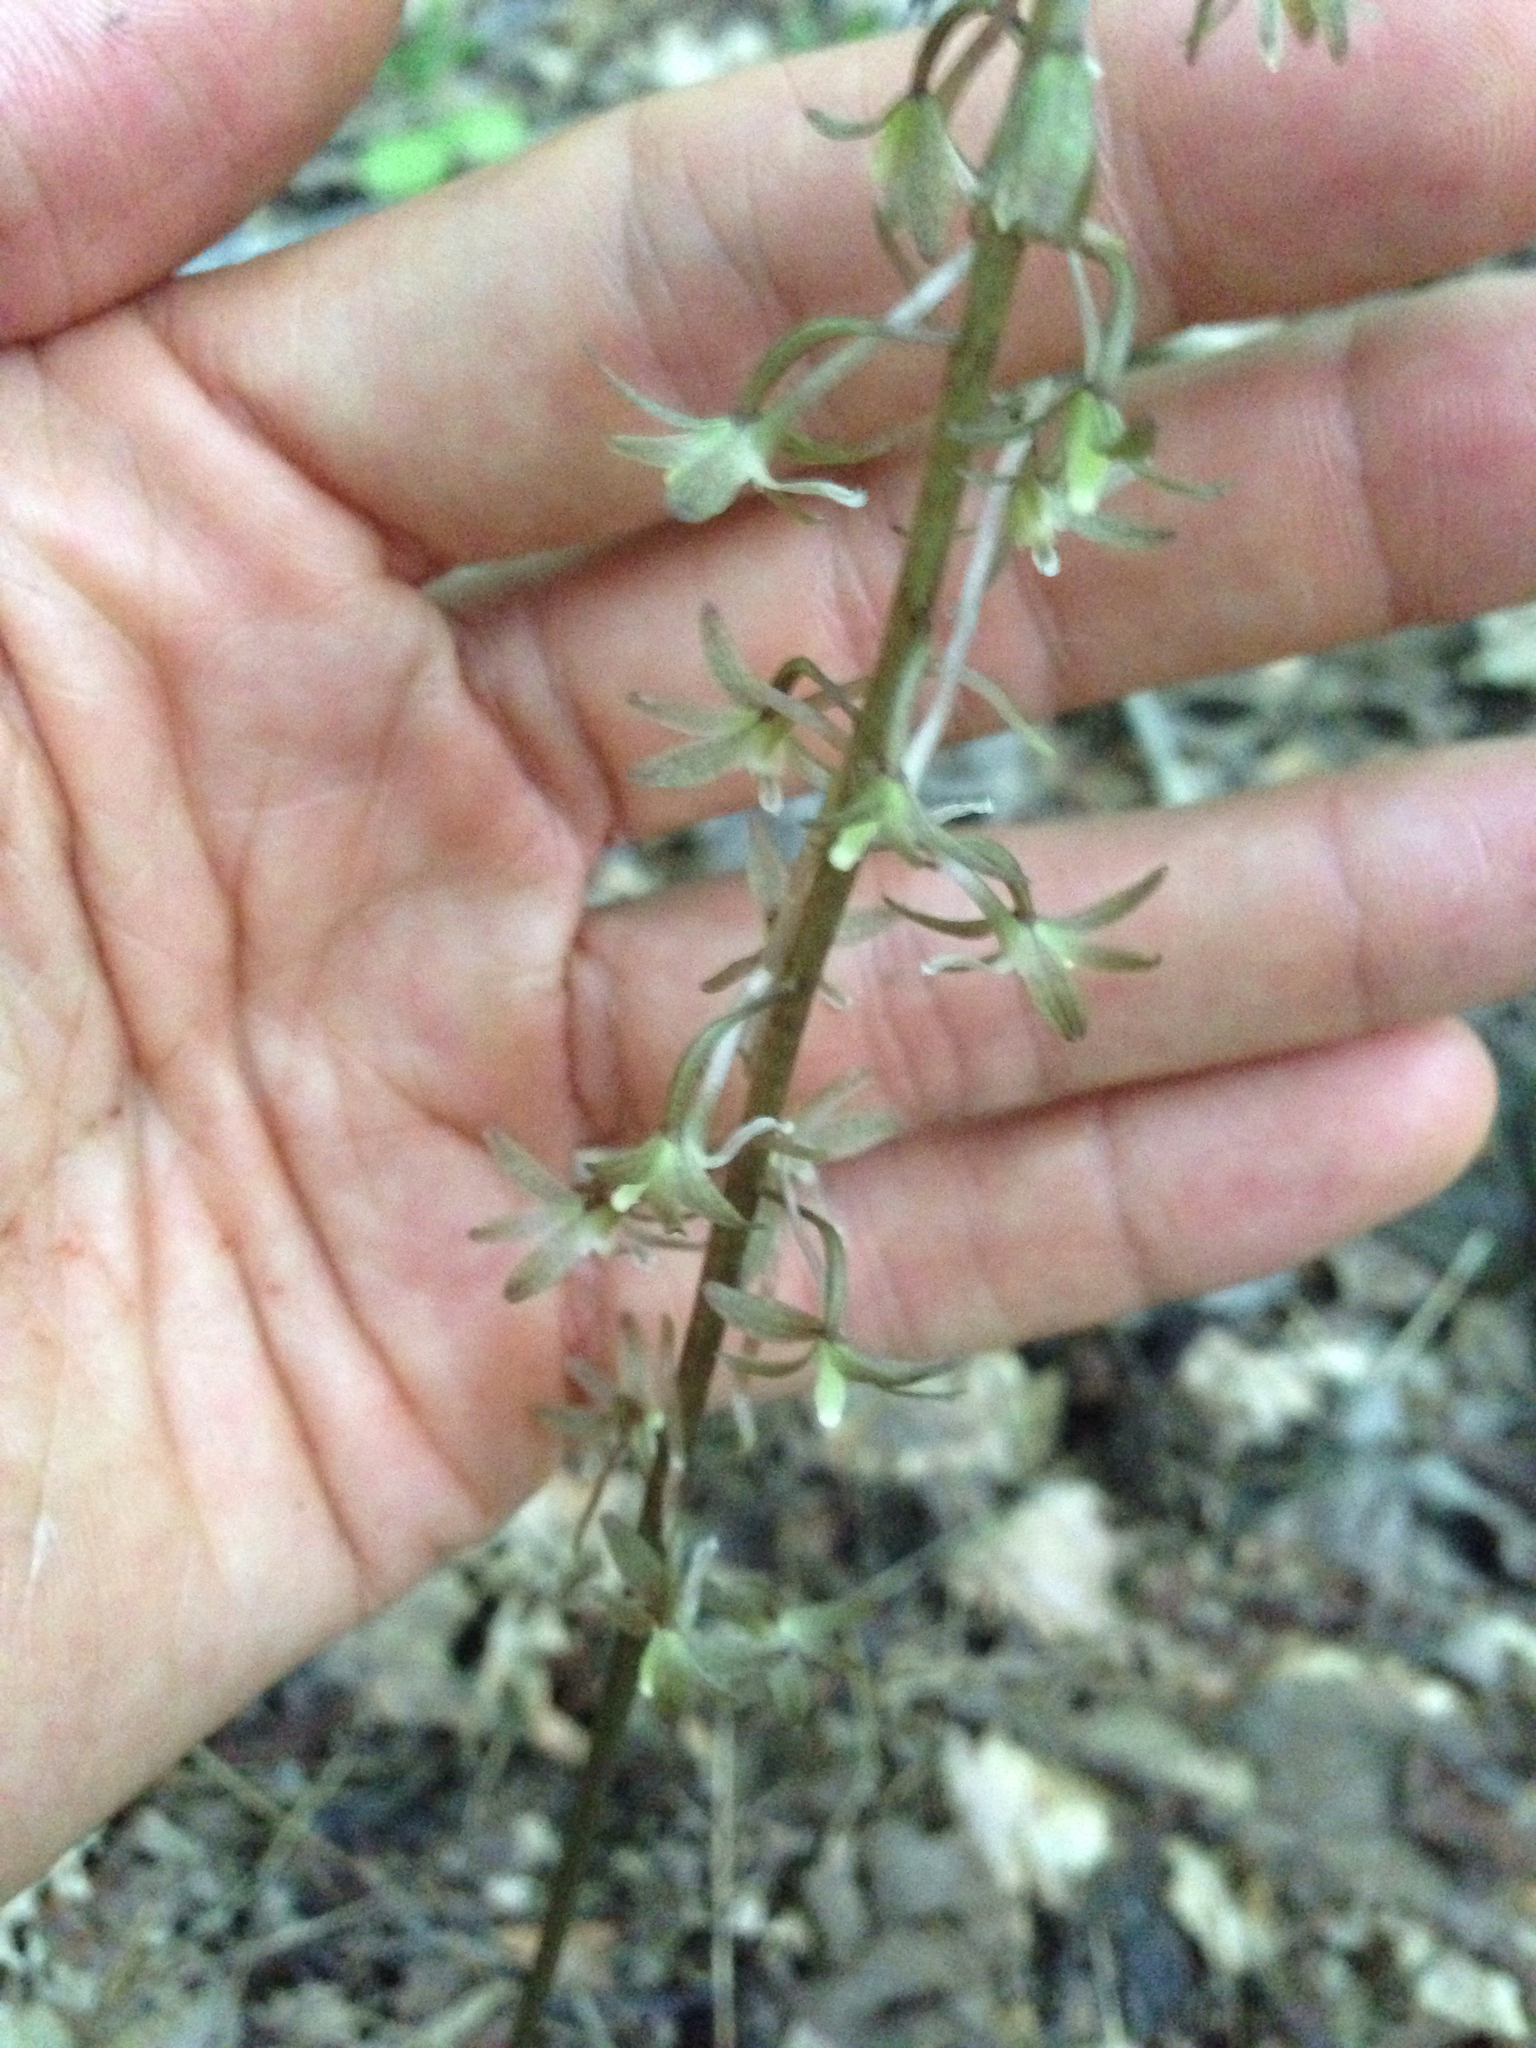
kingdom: Plantae
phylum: Tracheophyta
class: Liliopsida
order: Asparagales
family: Orchidaceae
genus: Tipularia
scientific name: Tipularia discolor
